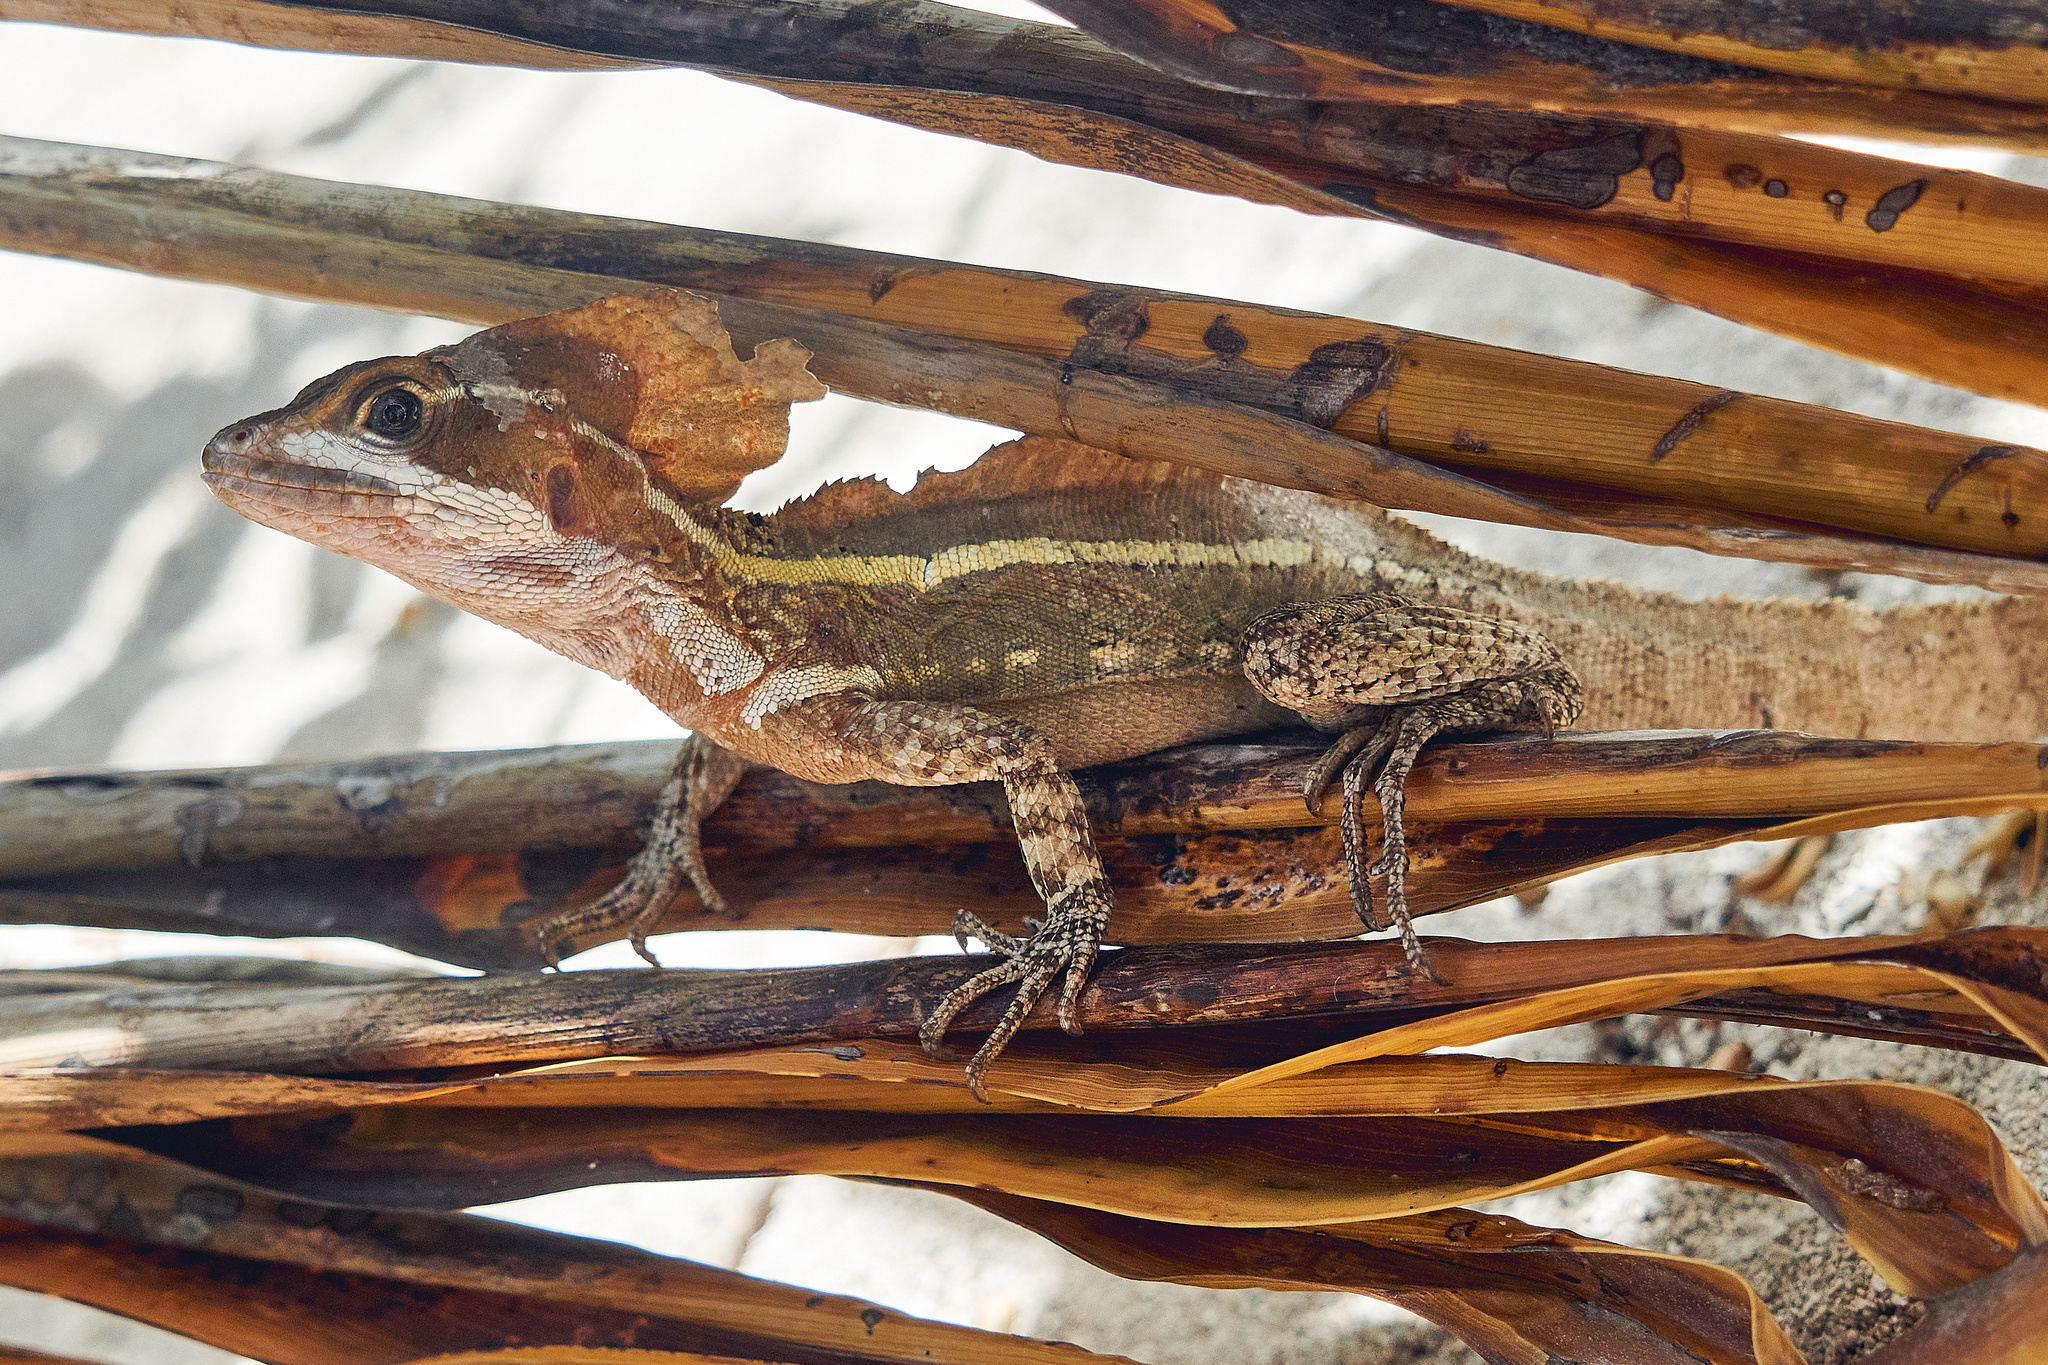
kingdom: Animalia
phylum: Chordata
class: Squamata
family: Corytophanidae
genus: Basiliscus
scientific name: Basiliscus vittatus
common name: Brown basilisk
